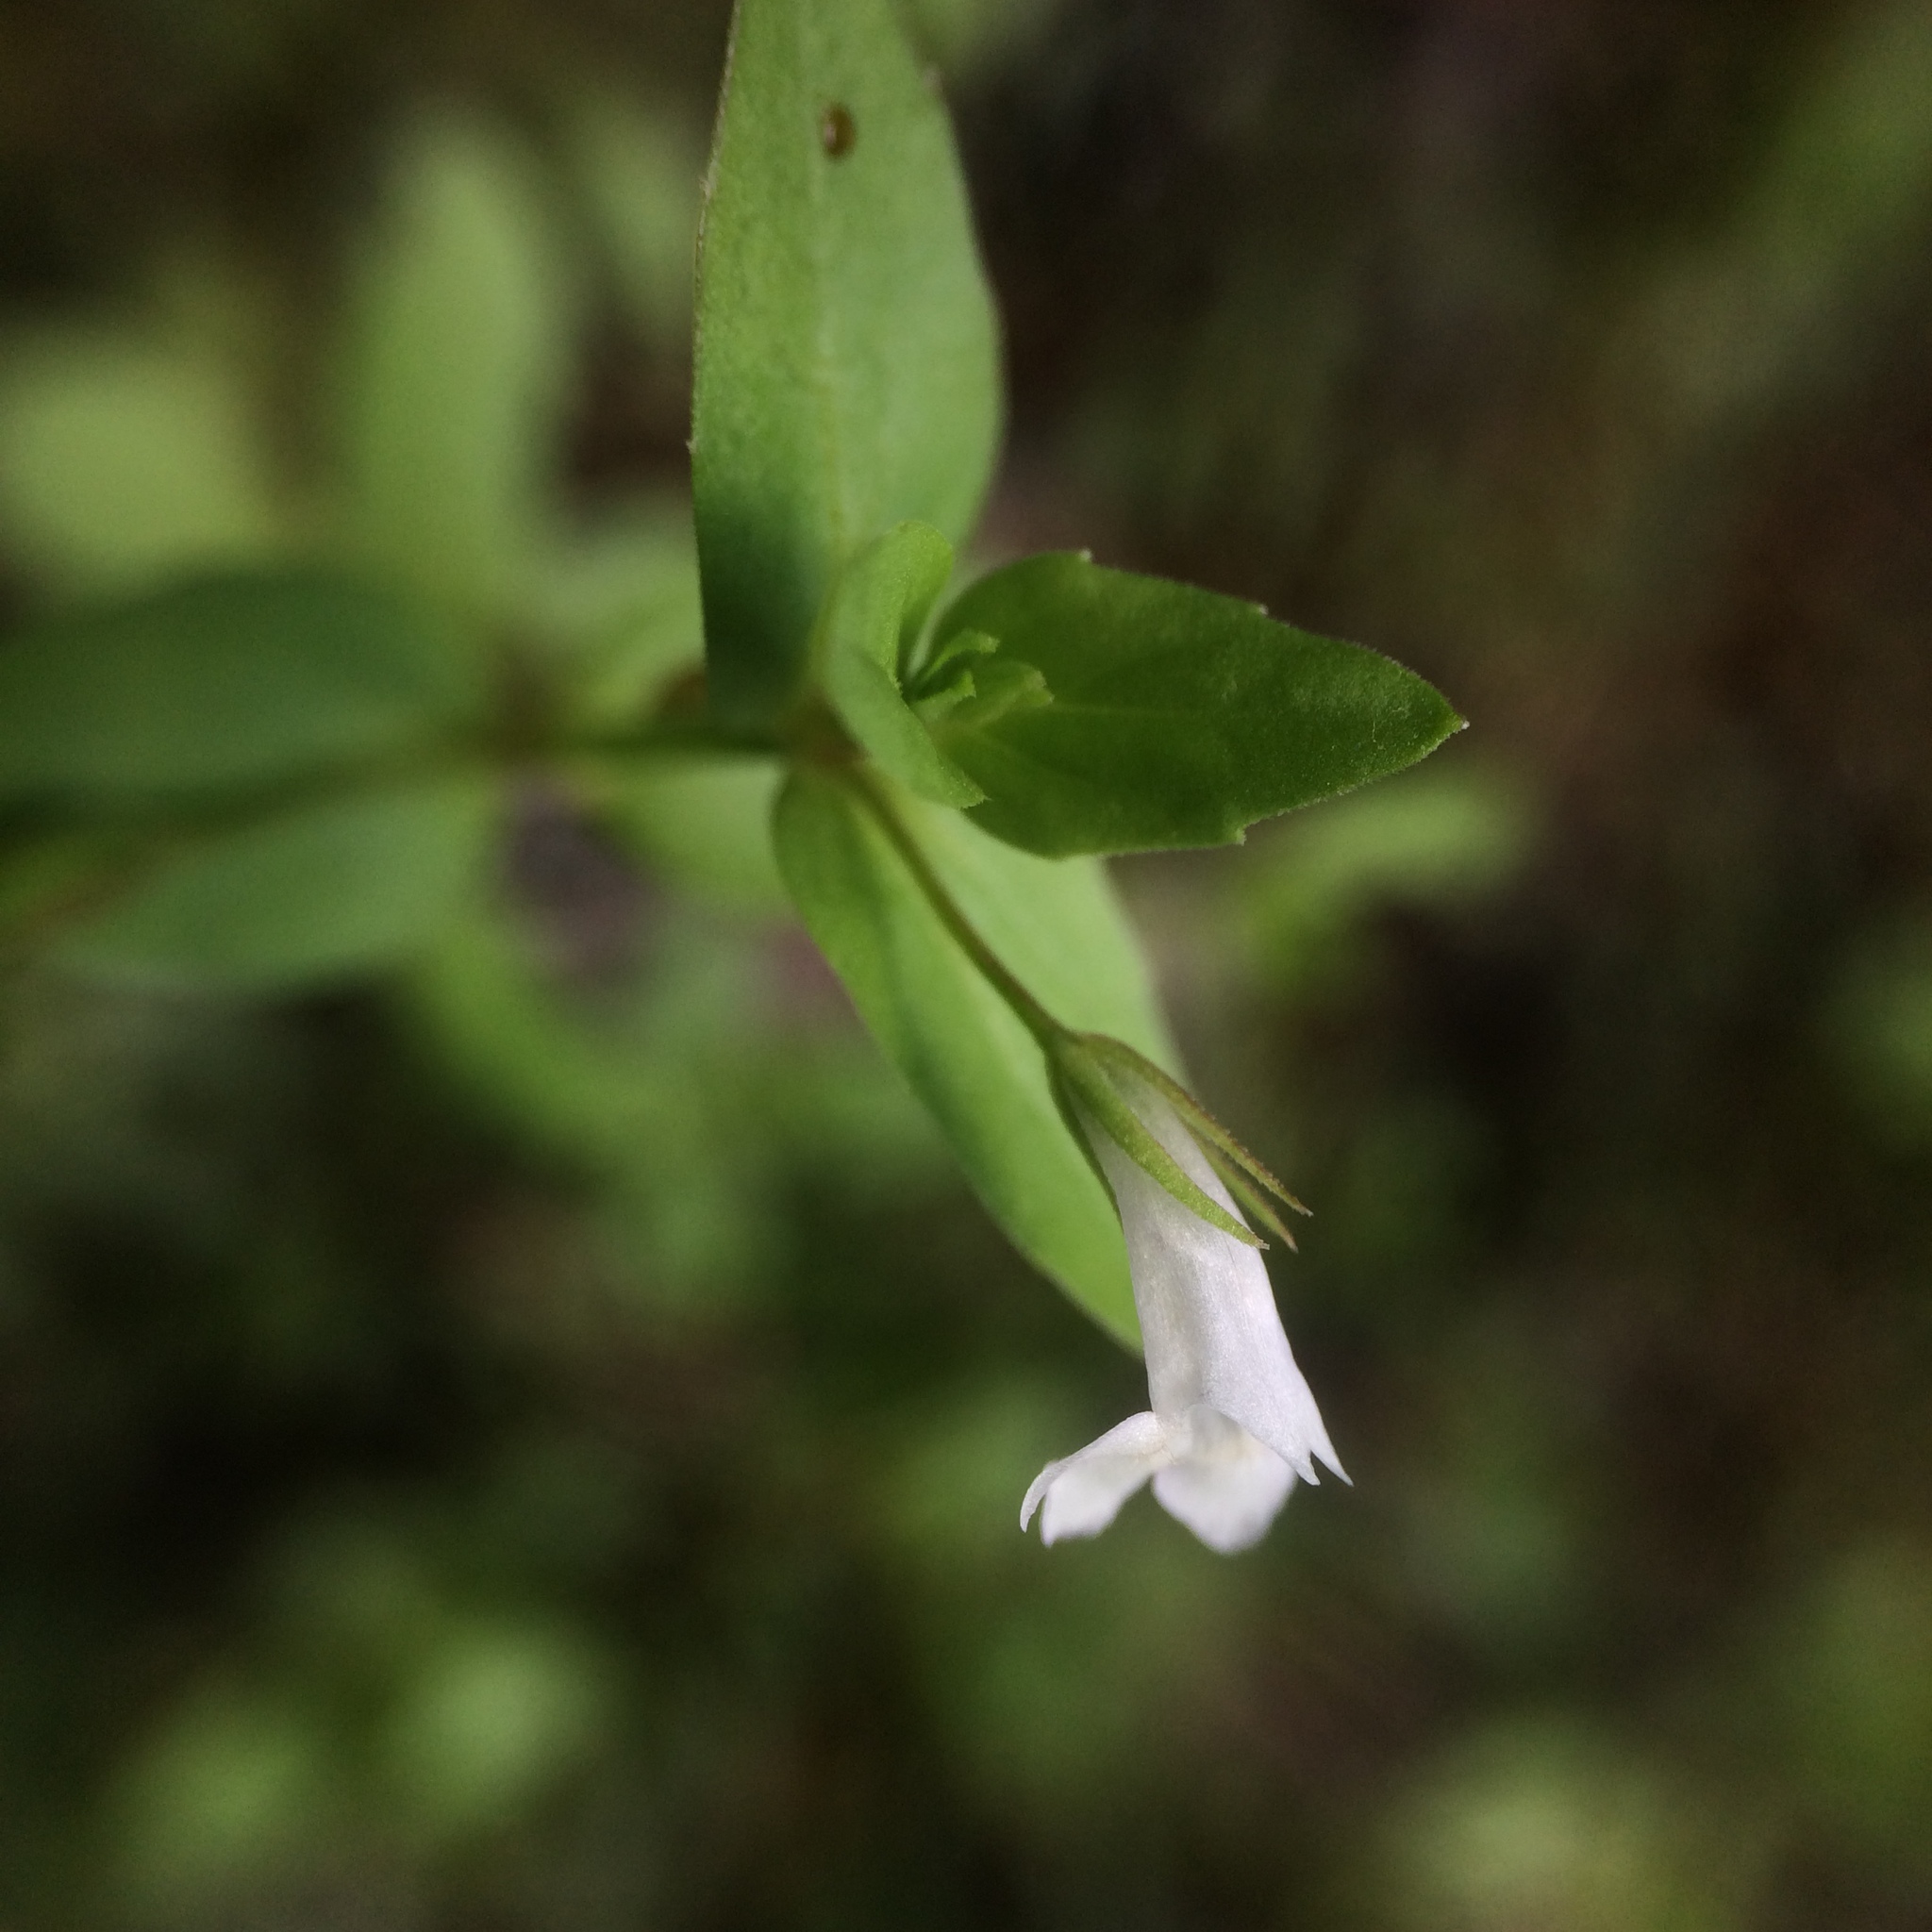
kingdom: Plantae
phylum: Tracheophyta
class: Magnoliopsida
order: Lamiales
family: Linderniaceae
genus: Lindernia
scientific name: Lindernia dubia
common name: Annual false pimpernel
